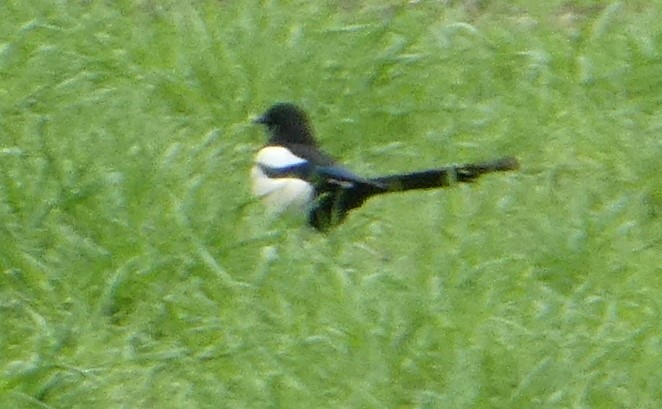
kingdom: Animalia
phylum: Chordata
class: Aves
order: Passeriformes
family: Corvidae
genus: Pica
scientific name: Pica pica
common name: Eurasian magpie
